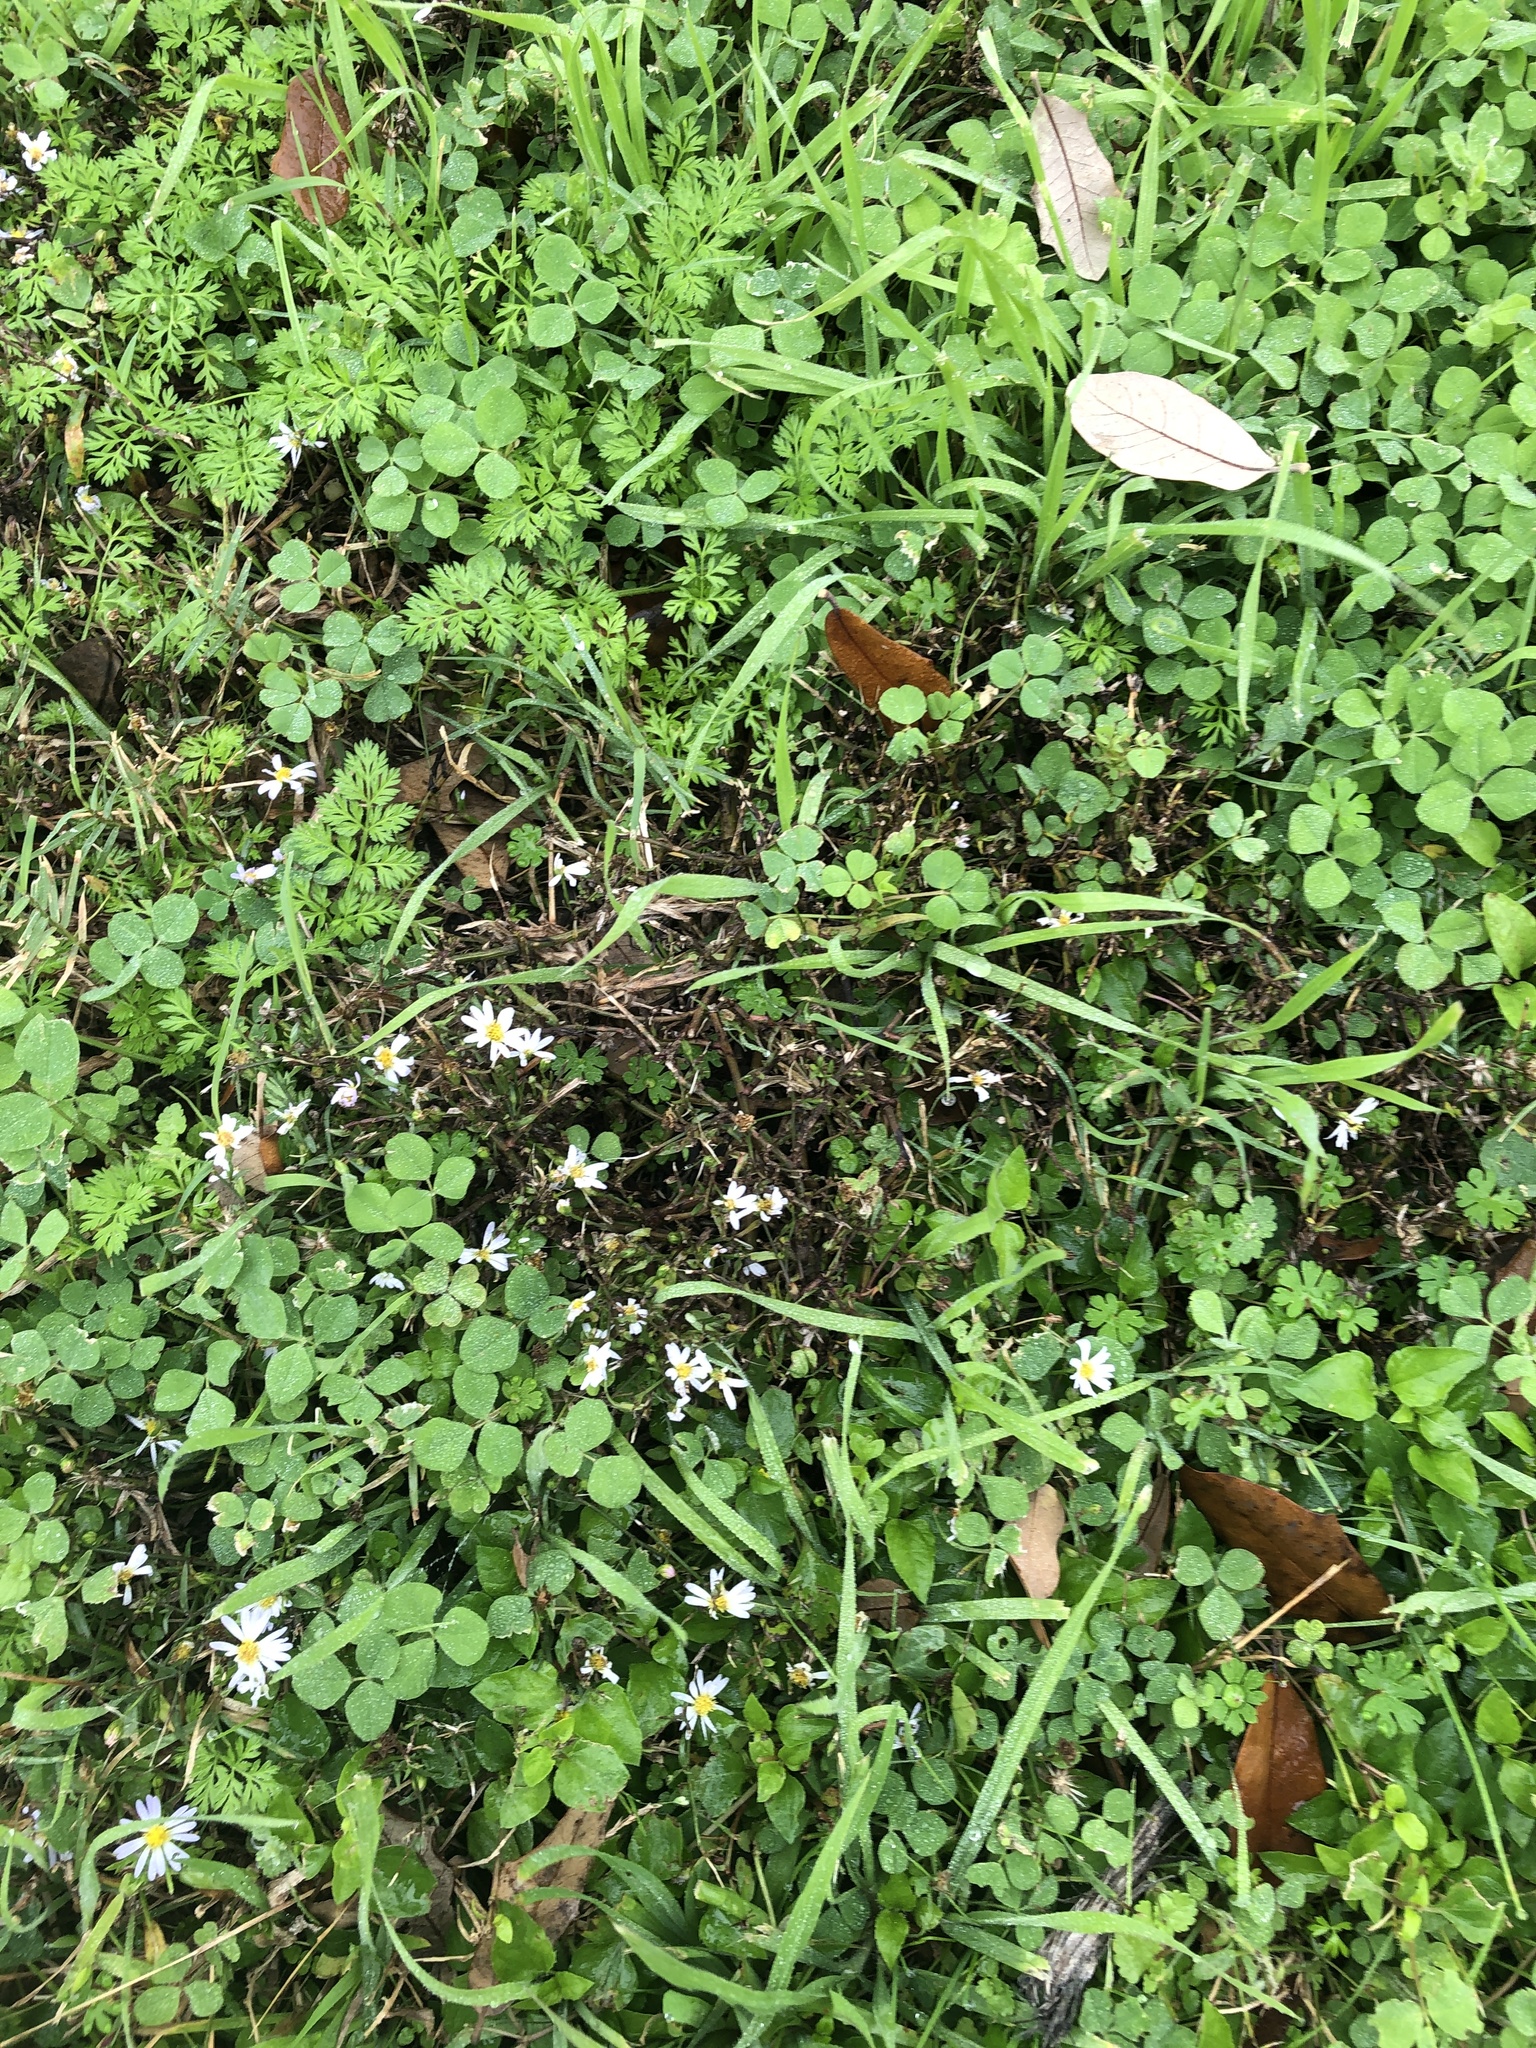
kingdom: Plantae
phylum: Tracheophyta
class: Magnoliopsida
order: Asterales
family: Asteraceae
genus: Symphyotrichum
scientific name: Symphyotrichum divaricatum
